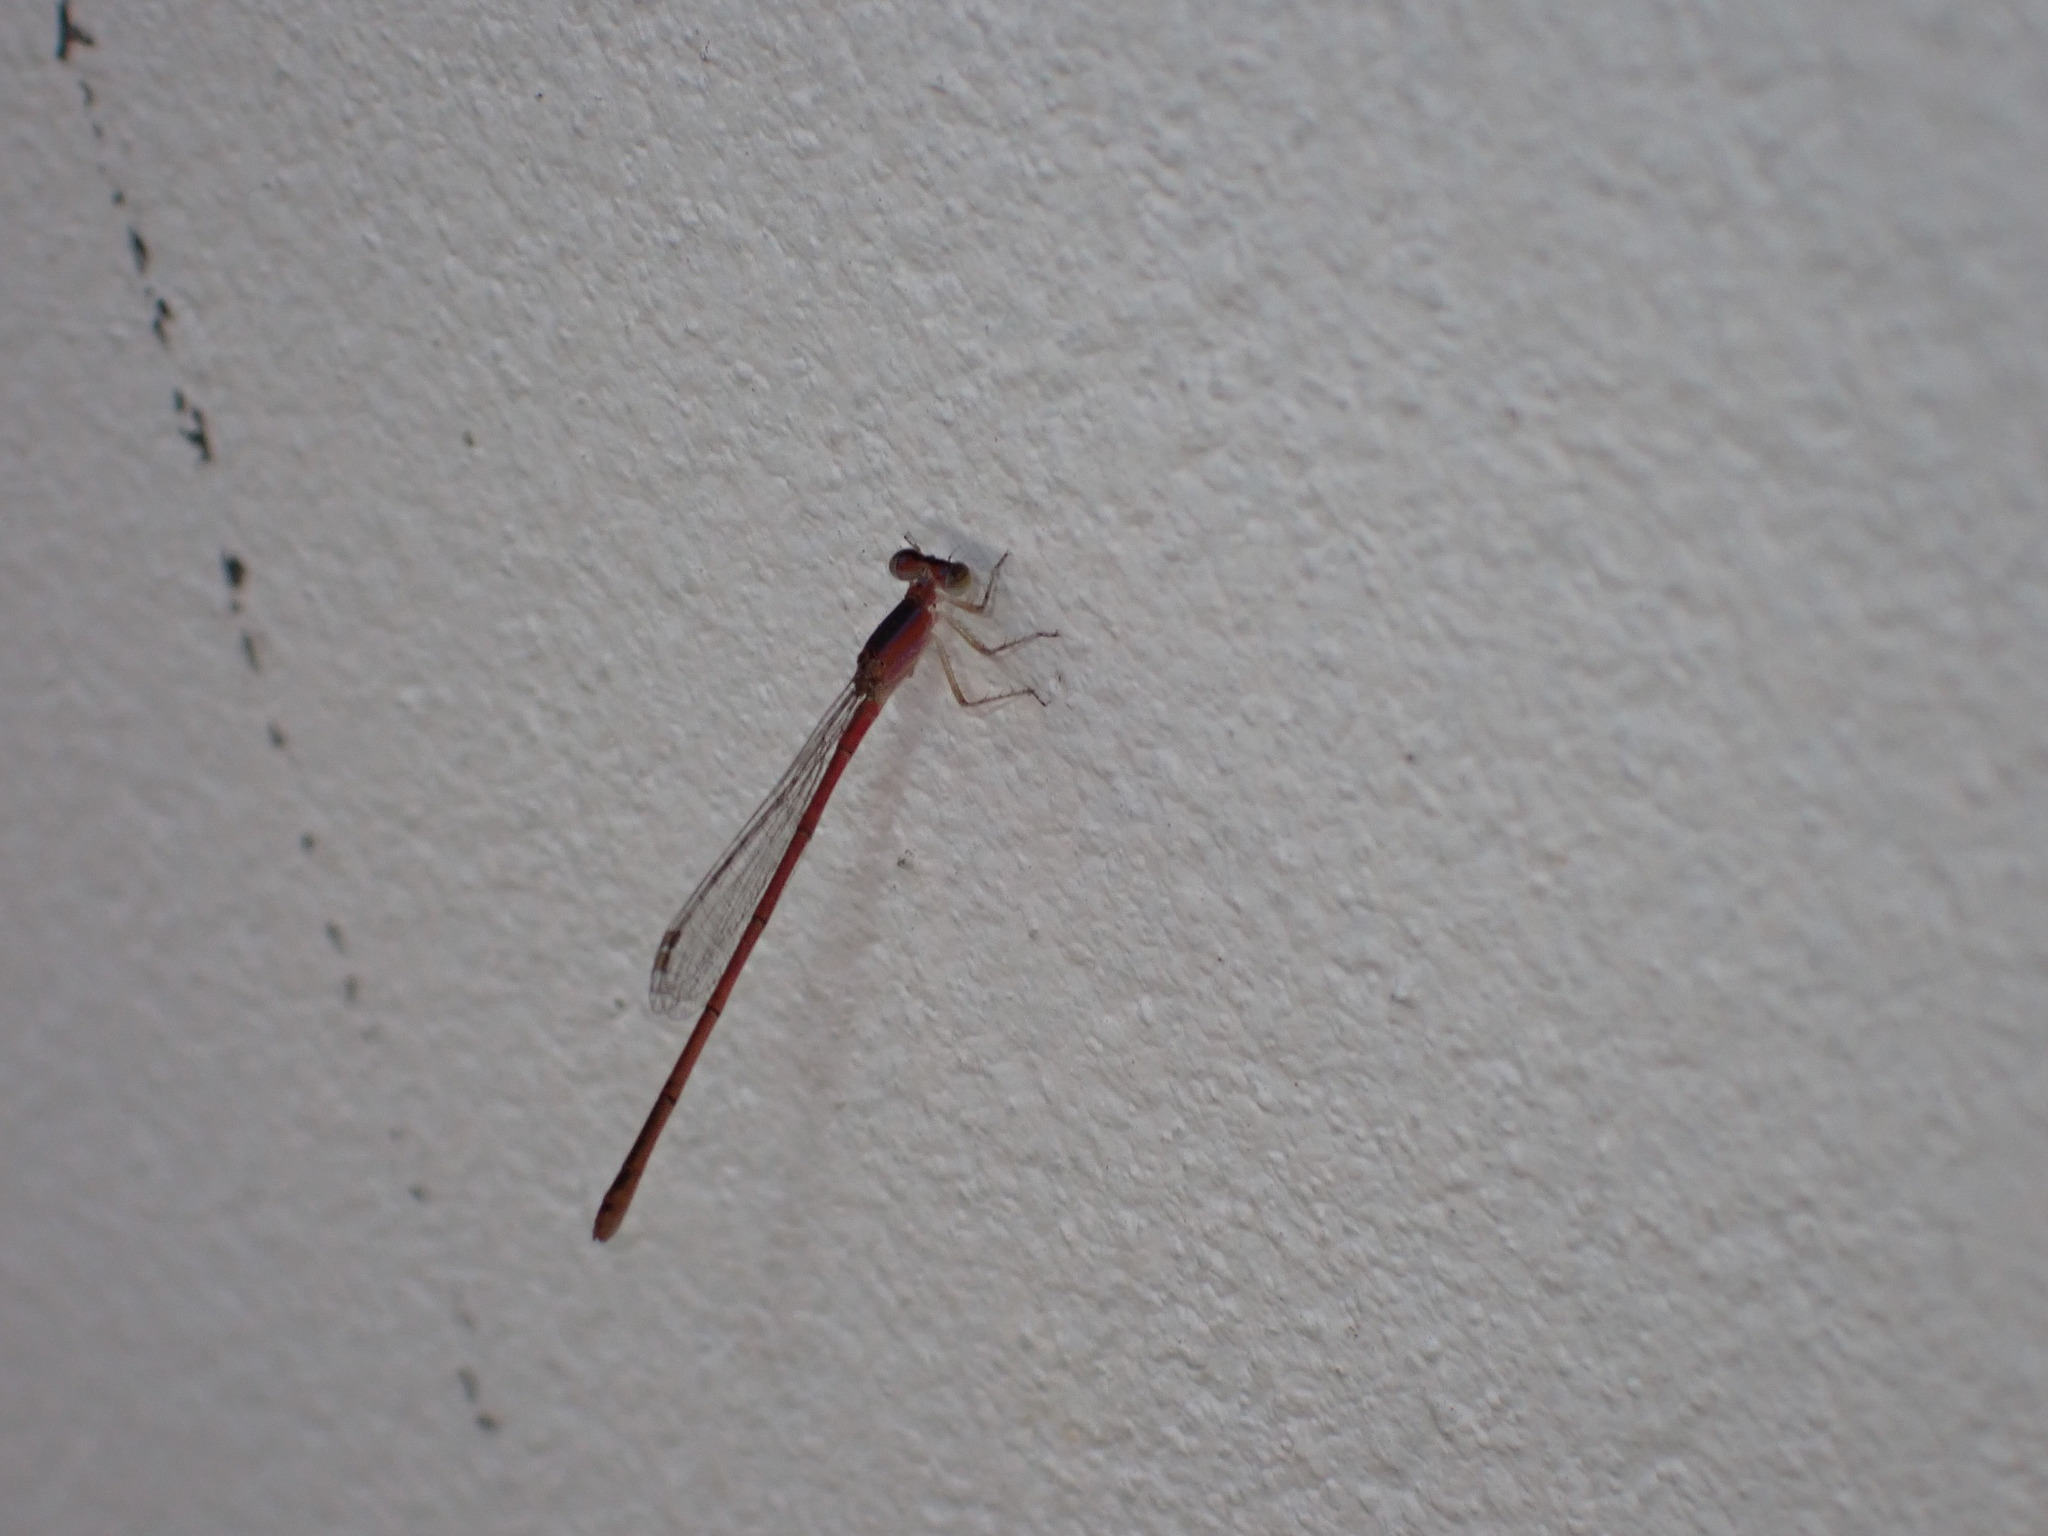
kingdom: Animalia
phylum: Arthropoda
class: Insecta
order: Odonata
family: Coenagrionidae
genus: Agriocnemis
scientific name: Agriocnemis pygmaea
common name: Pygmy wisp
